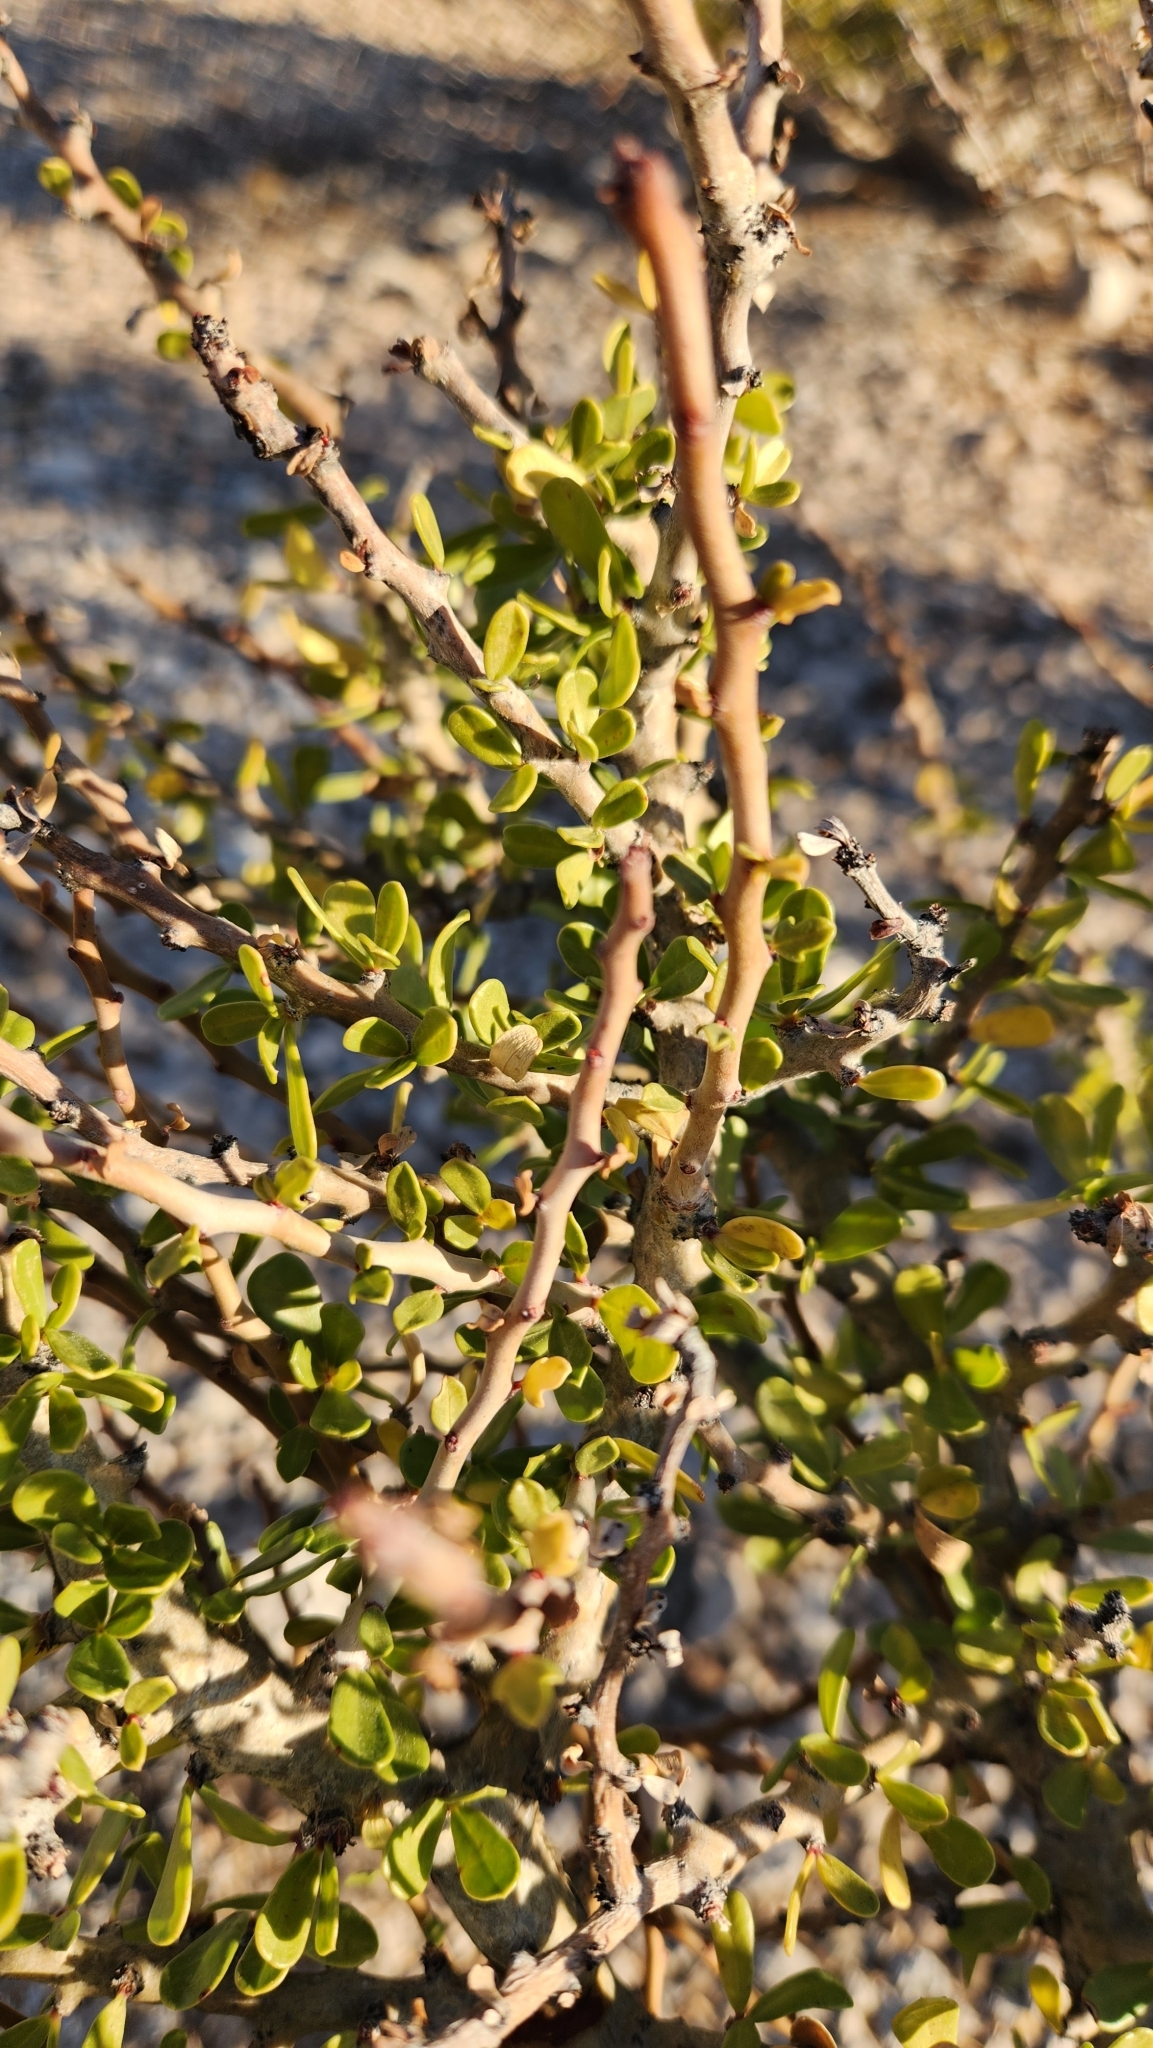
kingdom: Plantae
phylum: Tracheophyta
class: Magnoliopsida
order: Malpighiales
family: Euphorbiaceae
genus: Jatropha
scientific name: Jatropha cuneata
